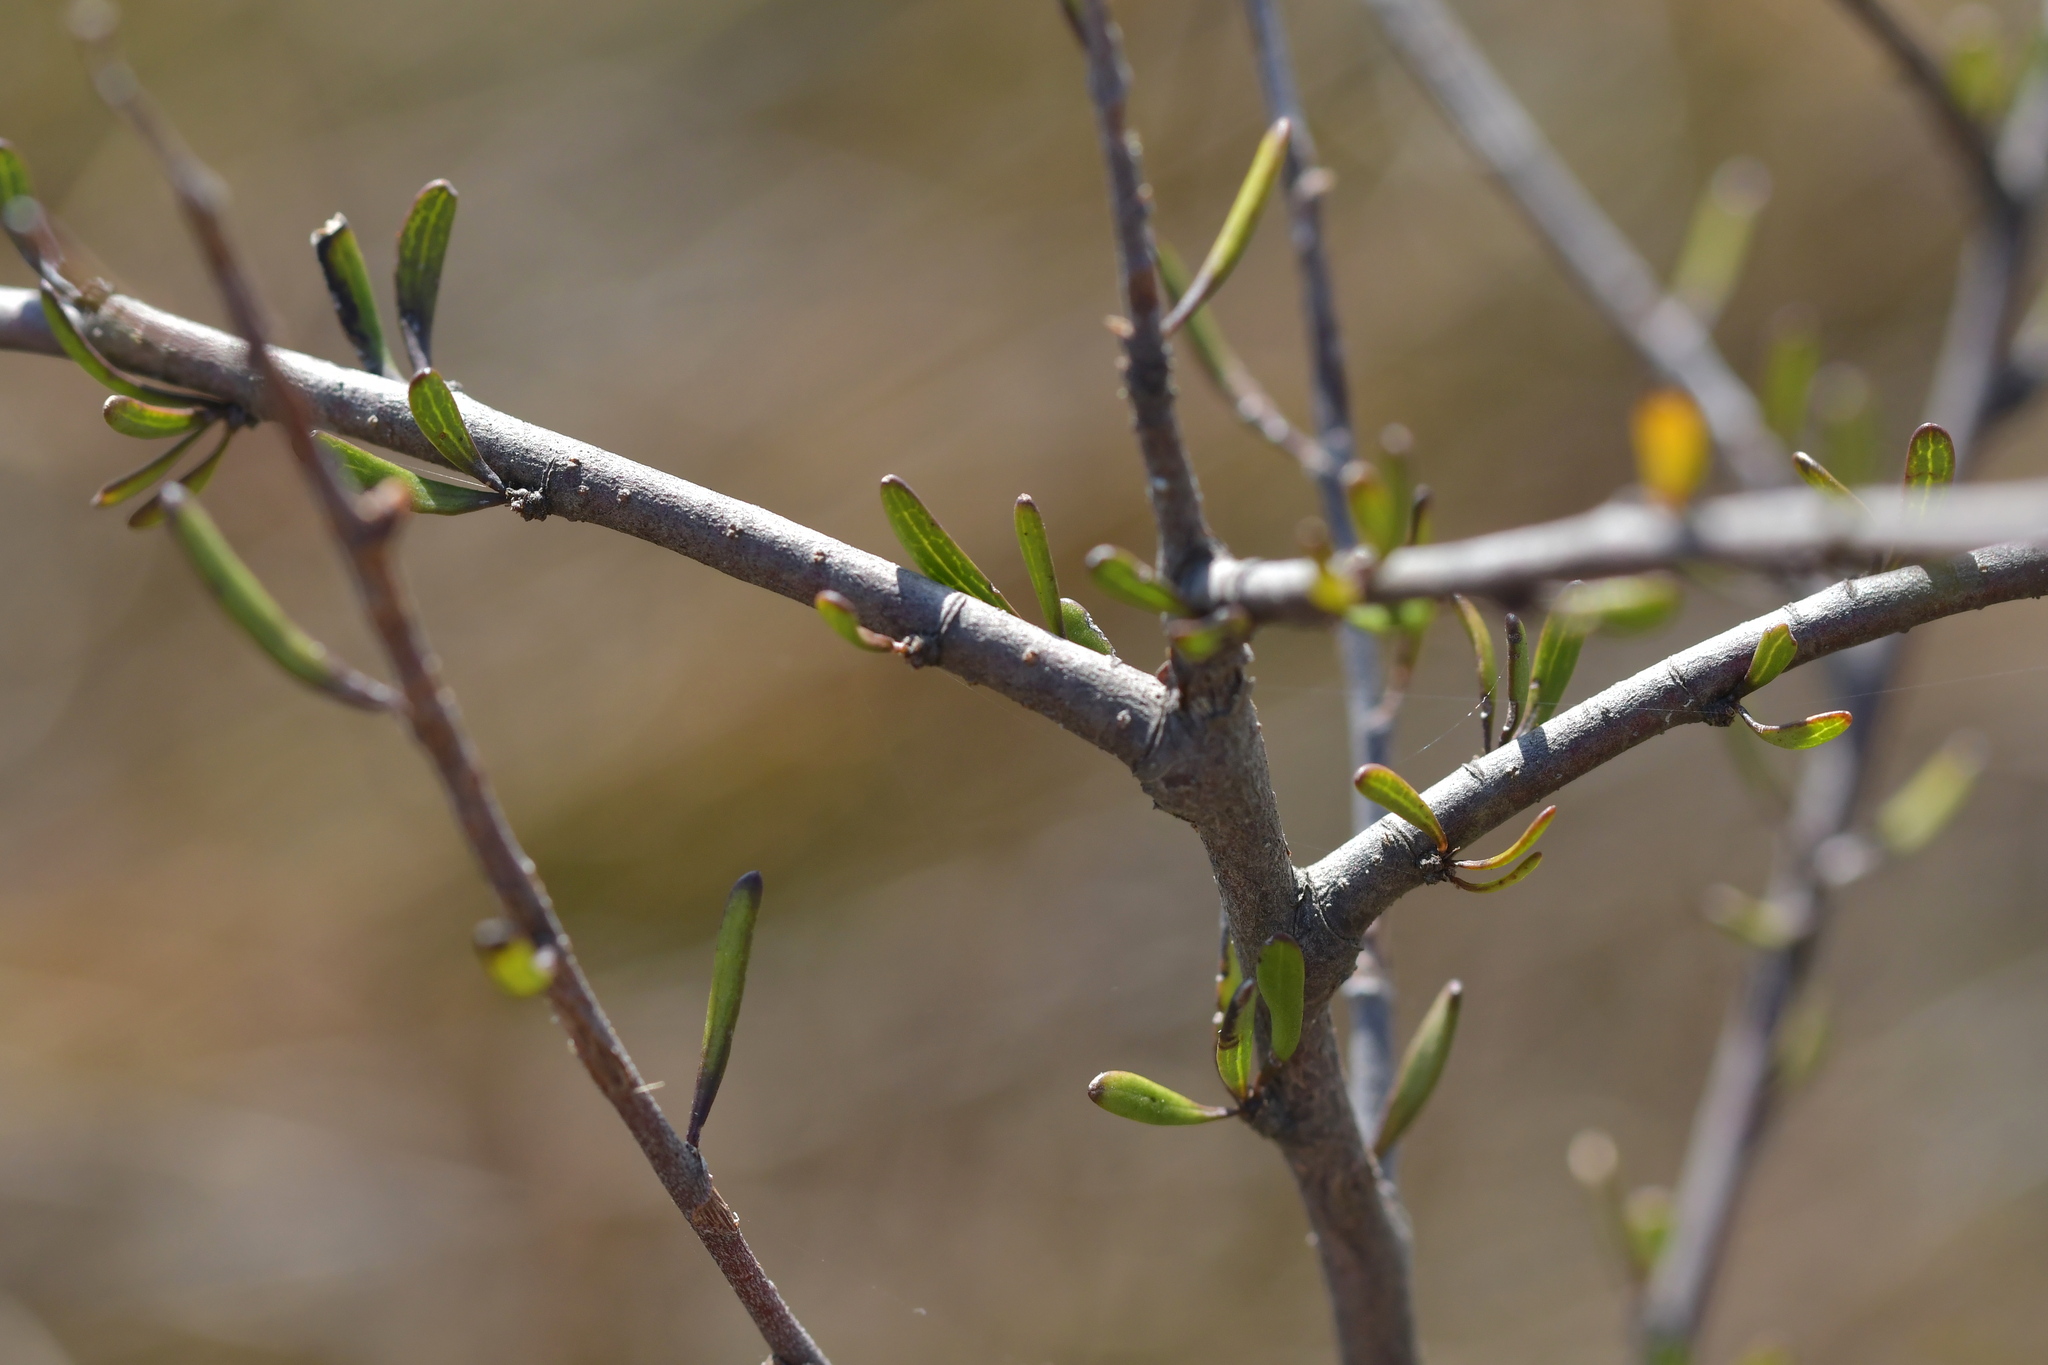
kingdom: Plantae
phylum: Tracheophyta
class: Magnoliopsida
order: Malvales
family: Malvaceae
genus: Plagianthus
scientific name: Plagianthus divaricatus
